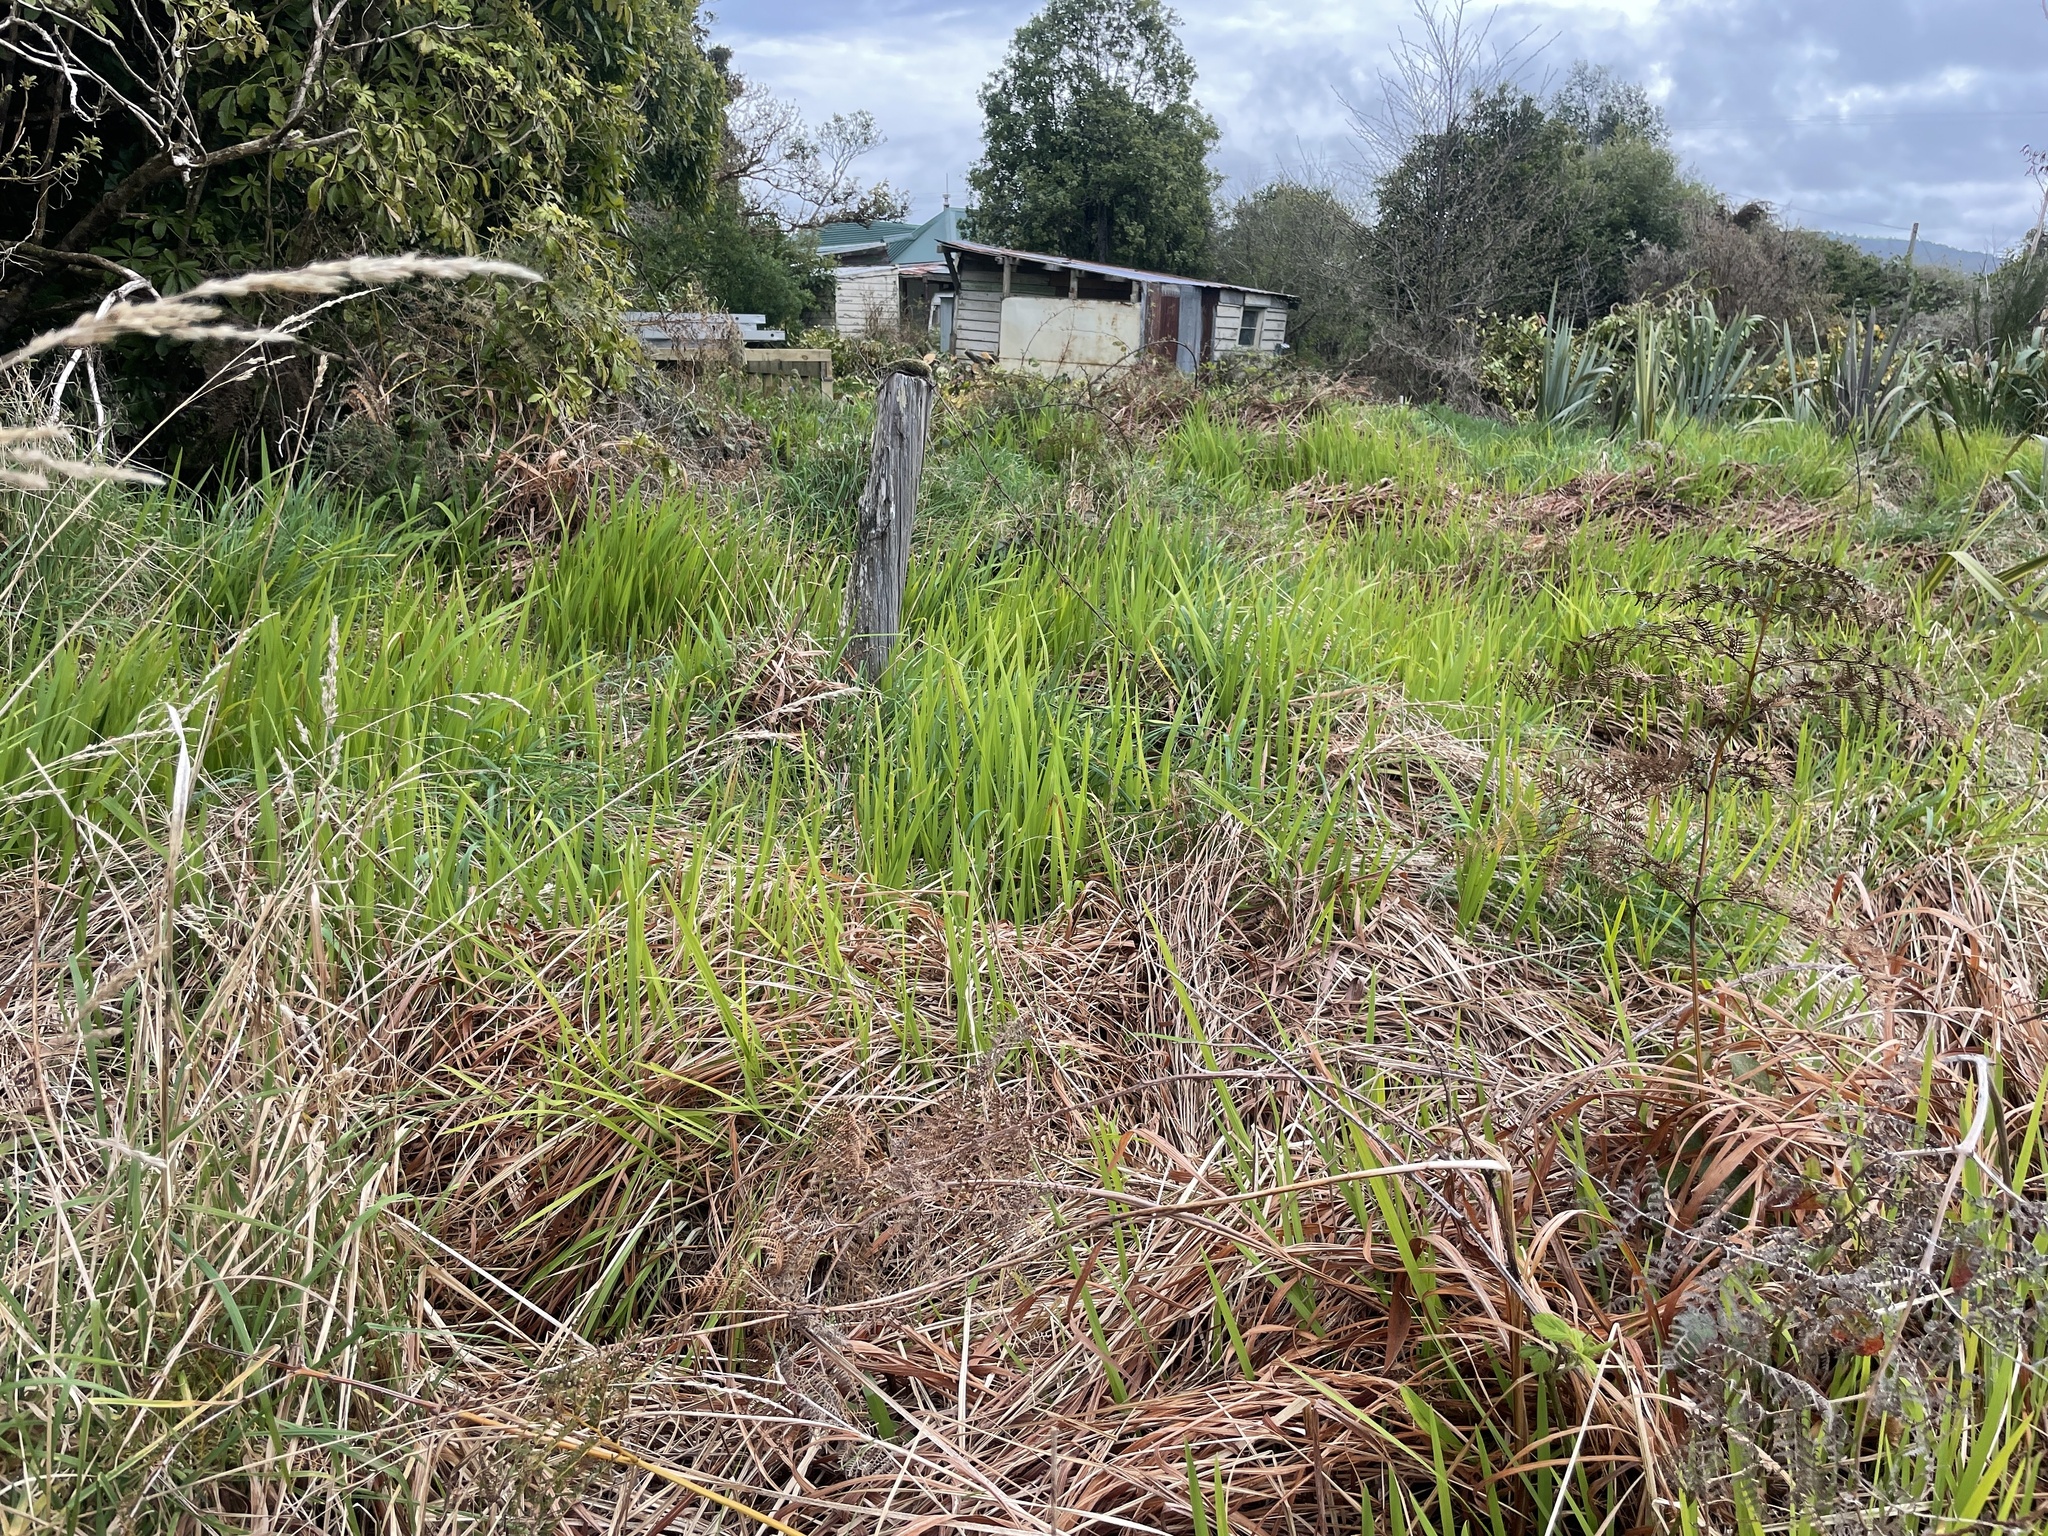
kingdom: Plantae
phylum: Tracheophyta
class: Liliopsida
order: Asparagales
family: Iridaceae
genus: Crocosmia
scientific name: Crocosmia crocosmiiflora
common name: Montbretia
